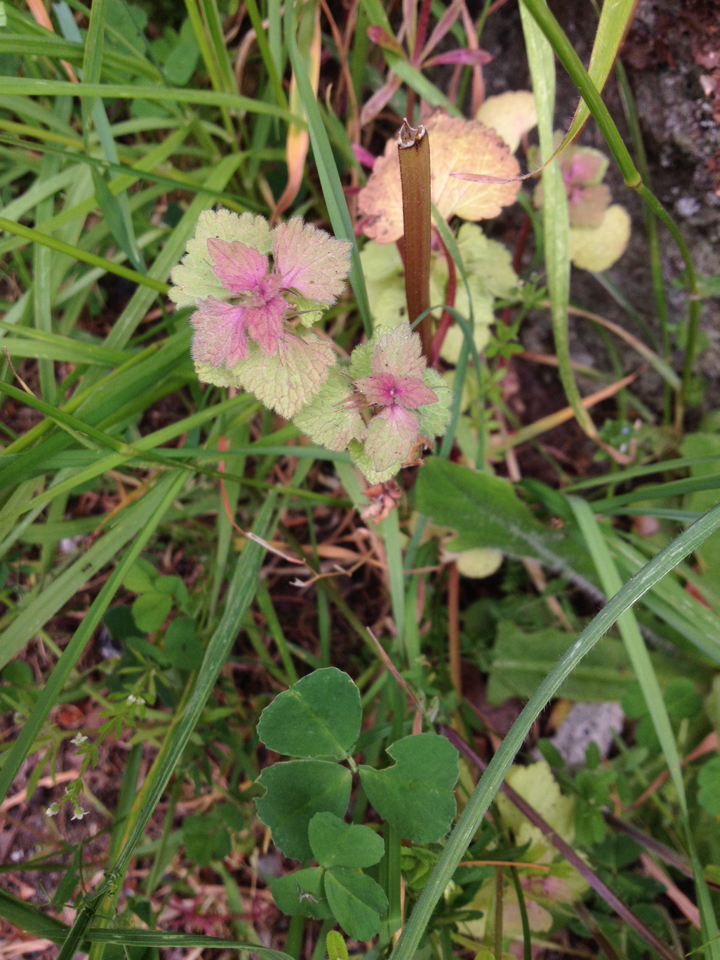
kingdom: Plantae
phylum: Tracheophyta
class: Magnoliopsida
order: Lamiales
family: Lamiaceae
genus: Lamium
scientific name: Lamium purpureum
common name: Red dead-nettle
